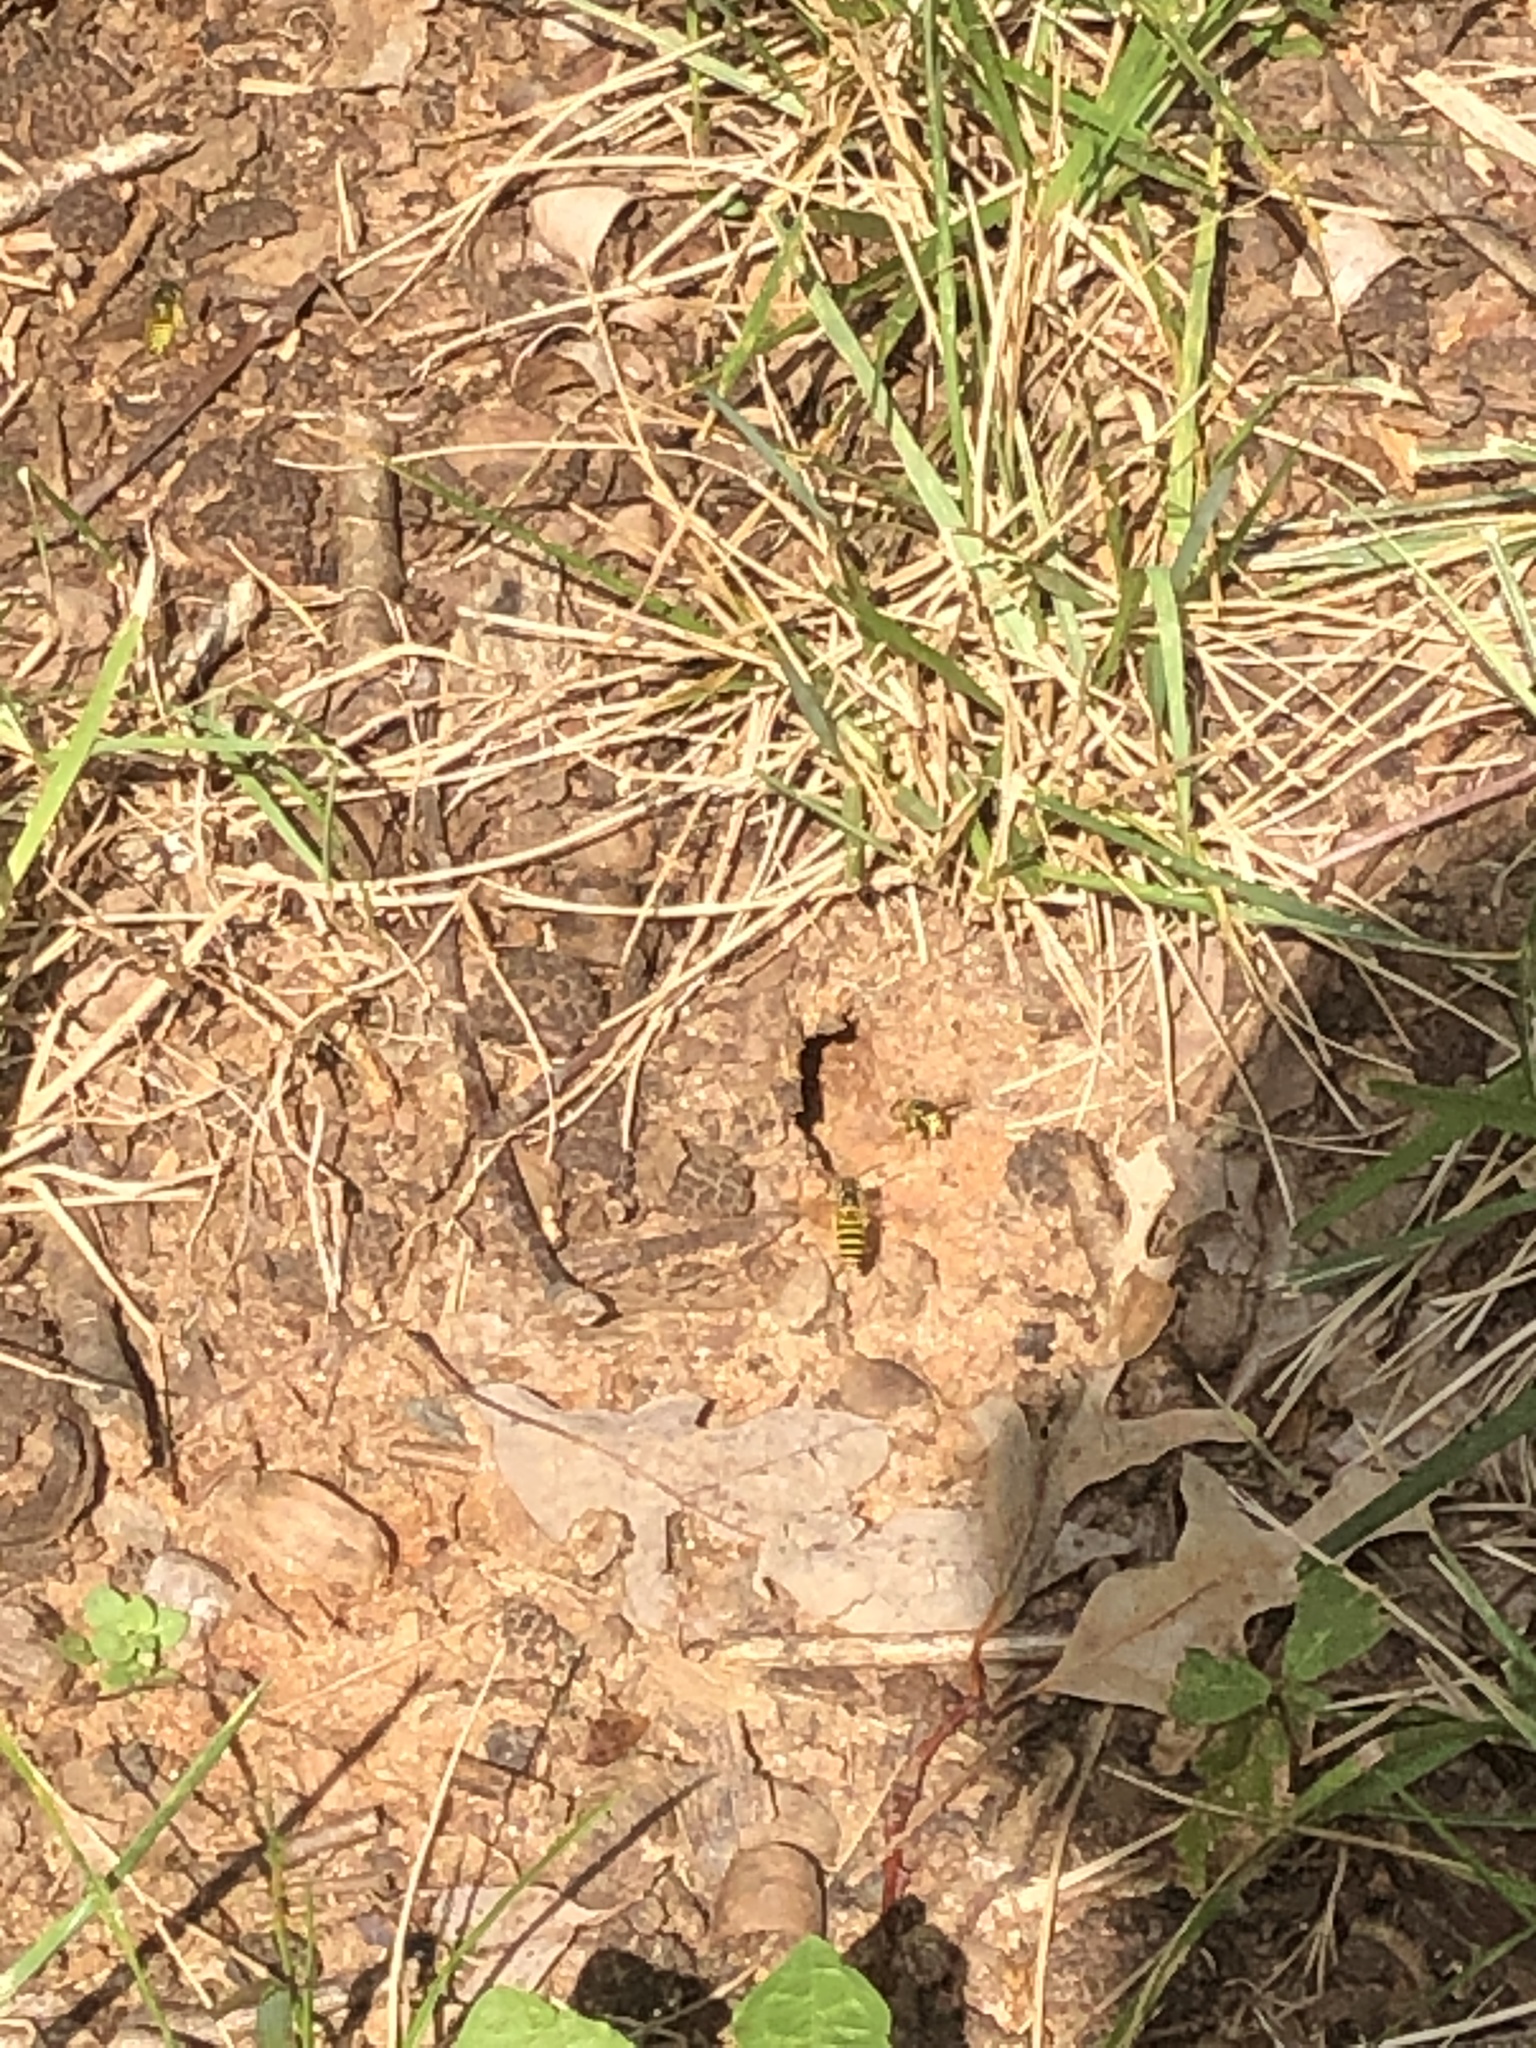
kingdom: Animalia
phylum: Arthropoda
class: Insecta
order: Hymenoptera
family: Vespidae
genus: Vespula
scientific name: Vespula
